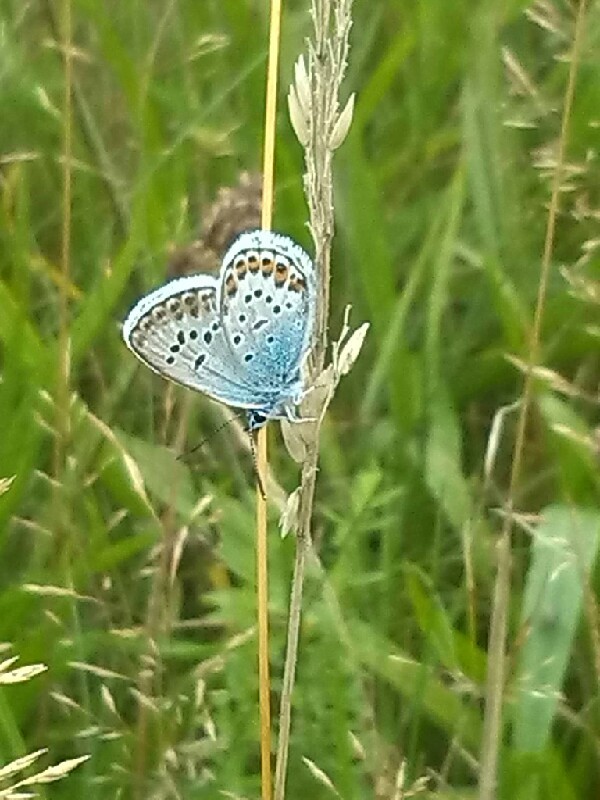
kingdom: Animalia
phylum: Arthropoda
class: Insecta
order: Lepidoptera
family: Lycaenidae
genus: Plebejus
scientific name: Plebejus argus
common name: Silver-studded blue
